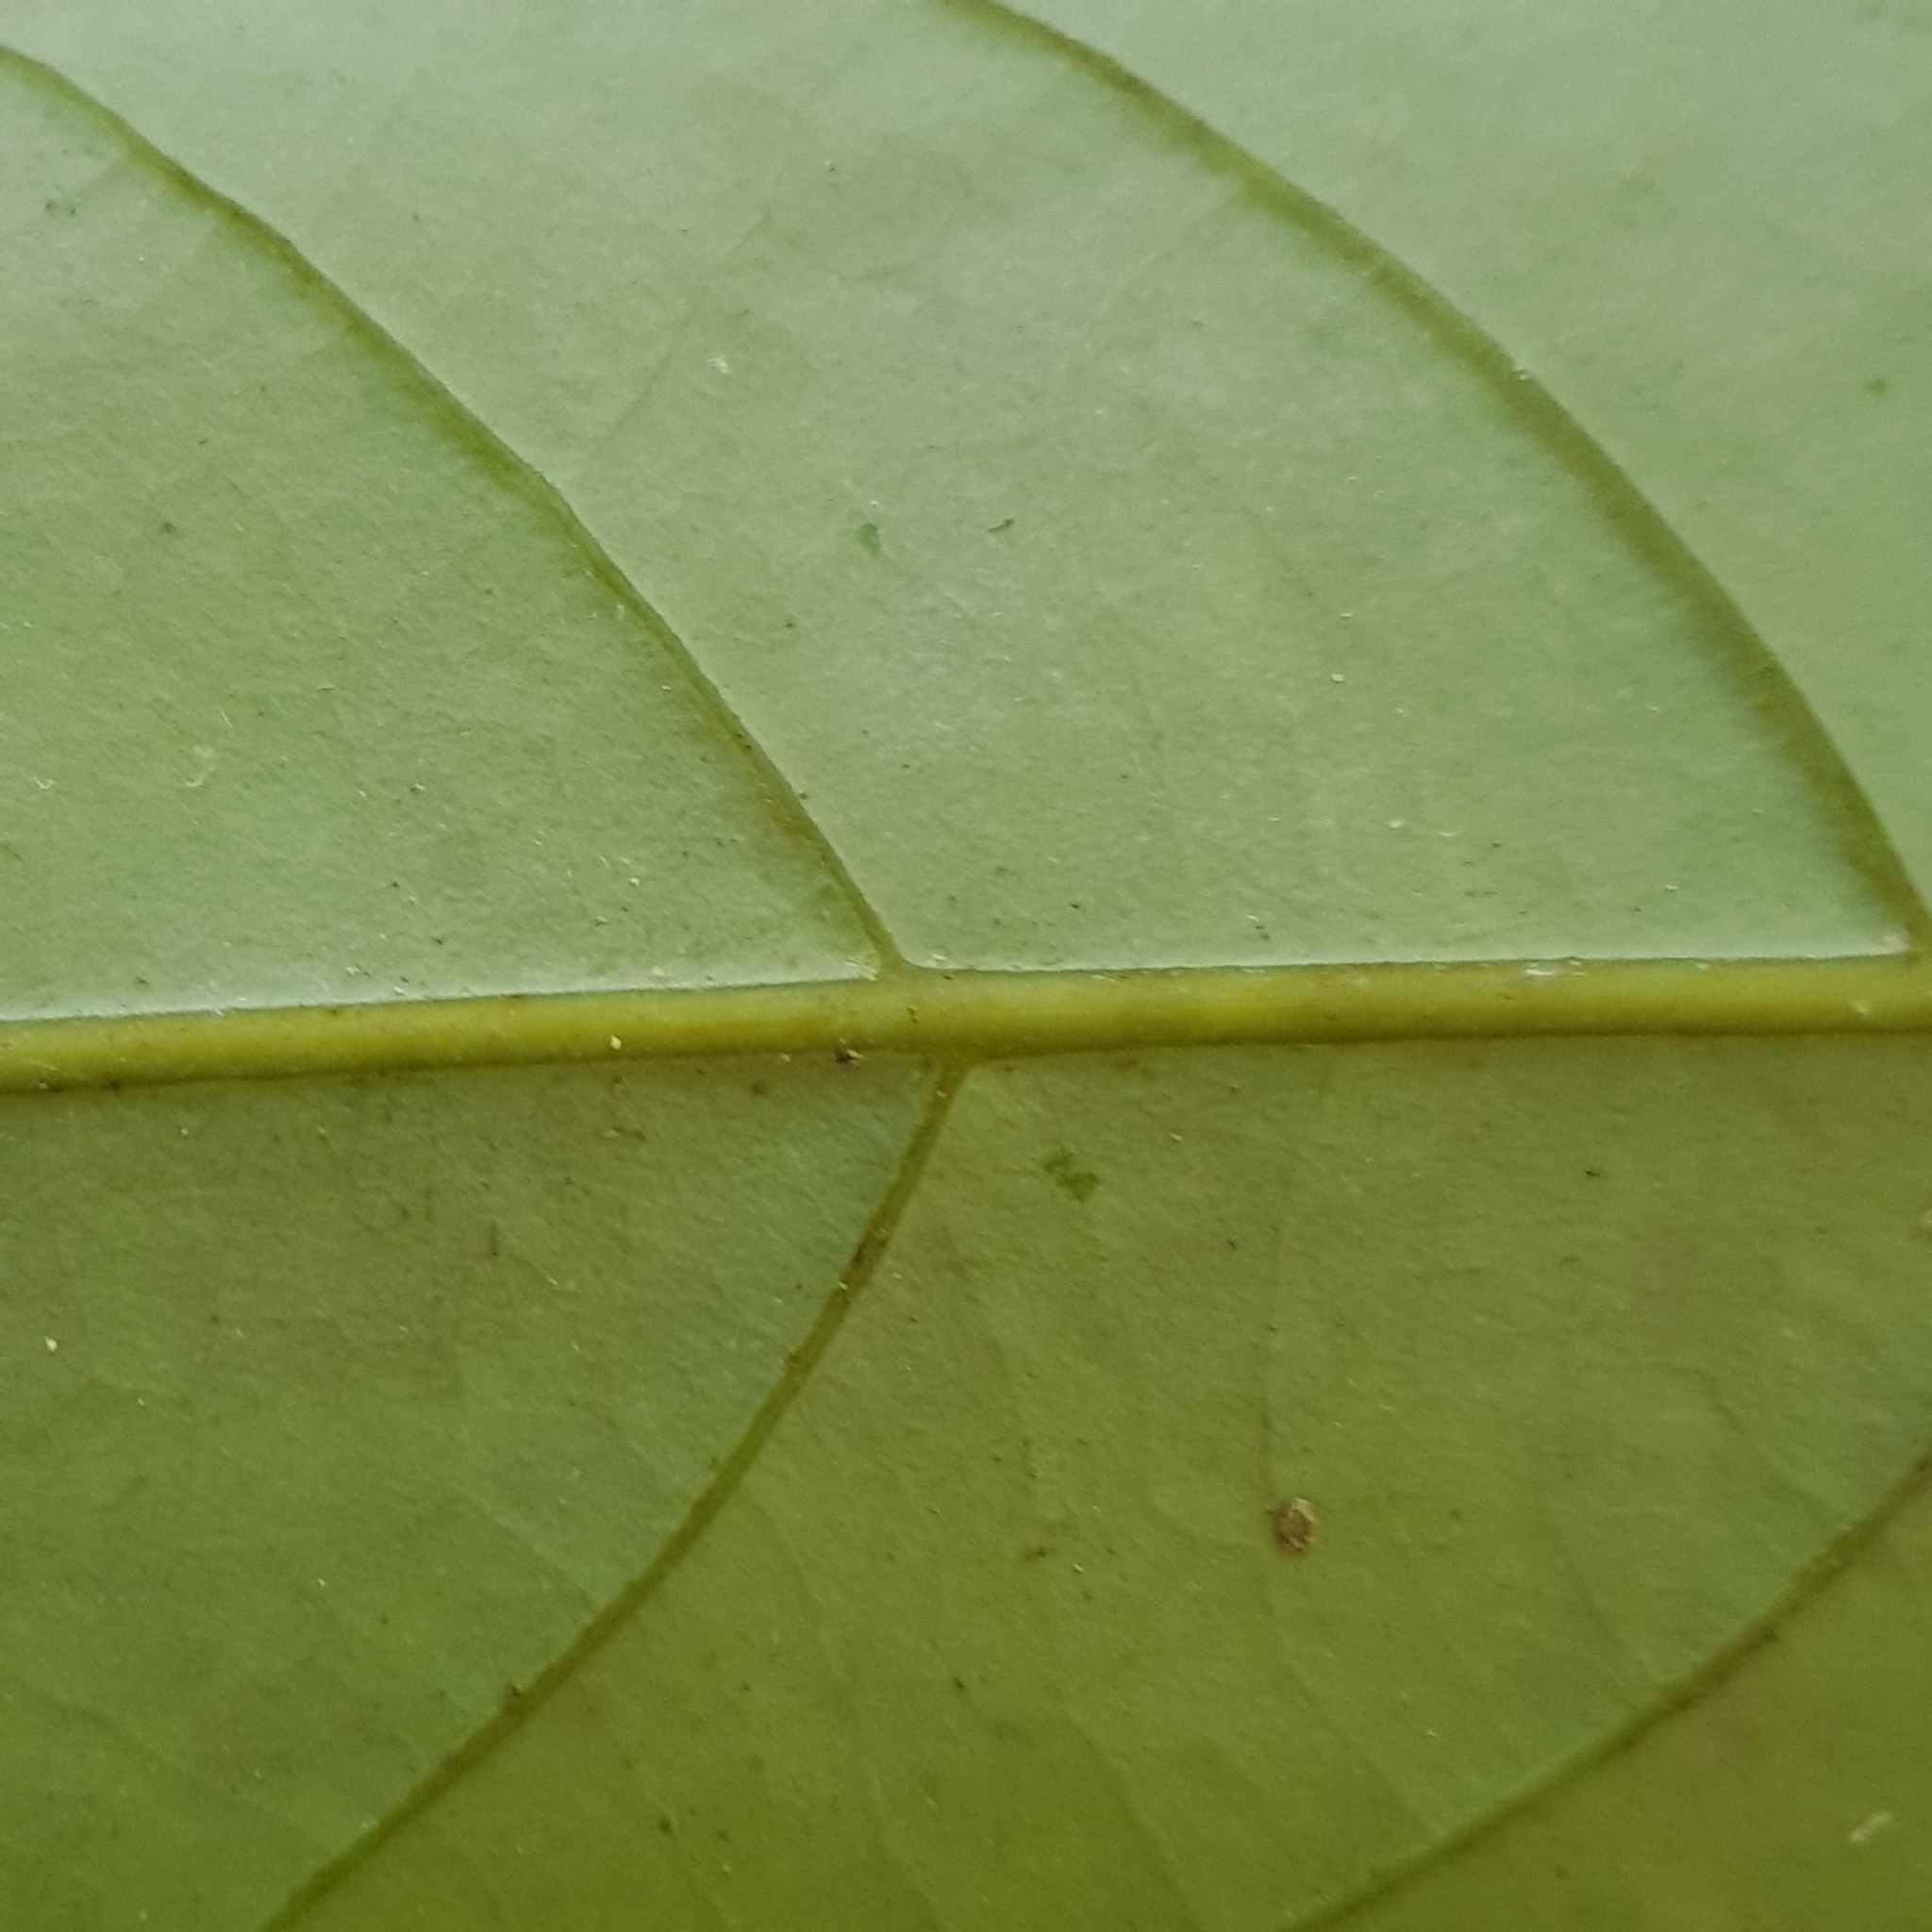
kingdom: Plantae
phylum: Tracheophyta
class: Magnoliopsida
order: Laurales
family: Lauraceae
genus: Litsea
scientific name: Litsea accedens
